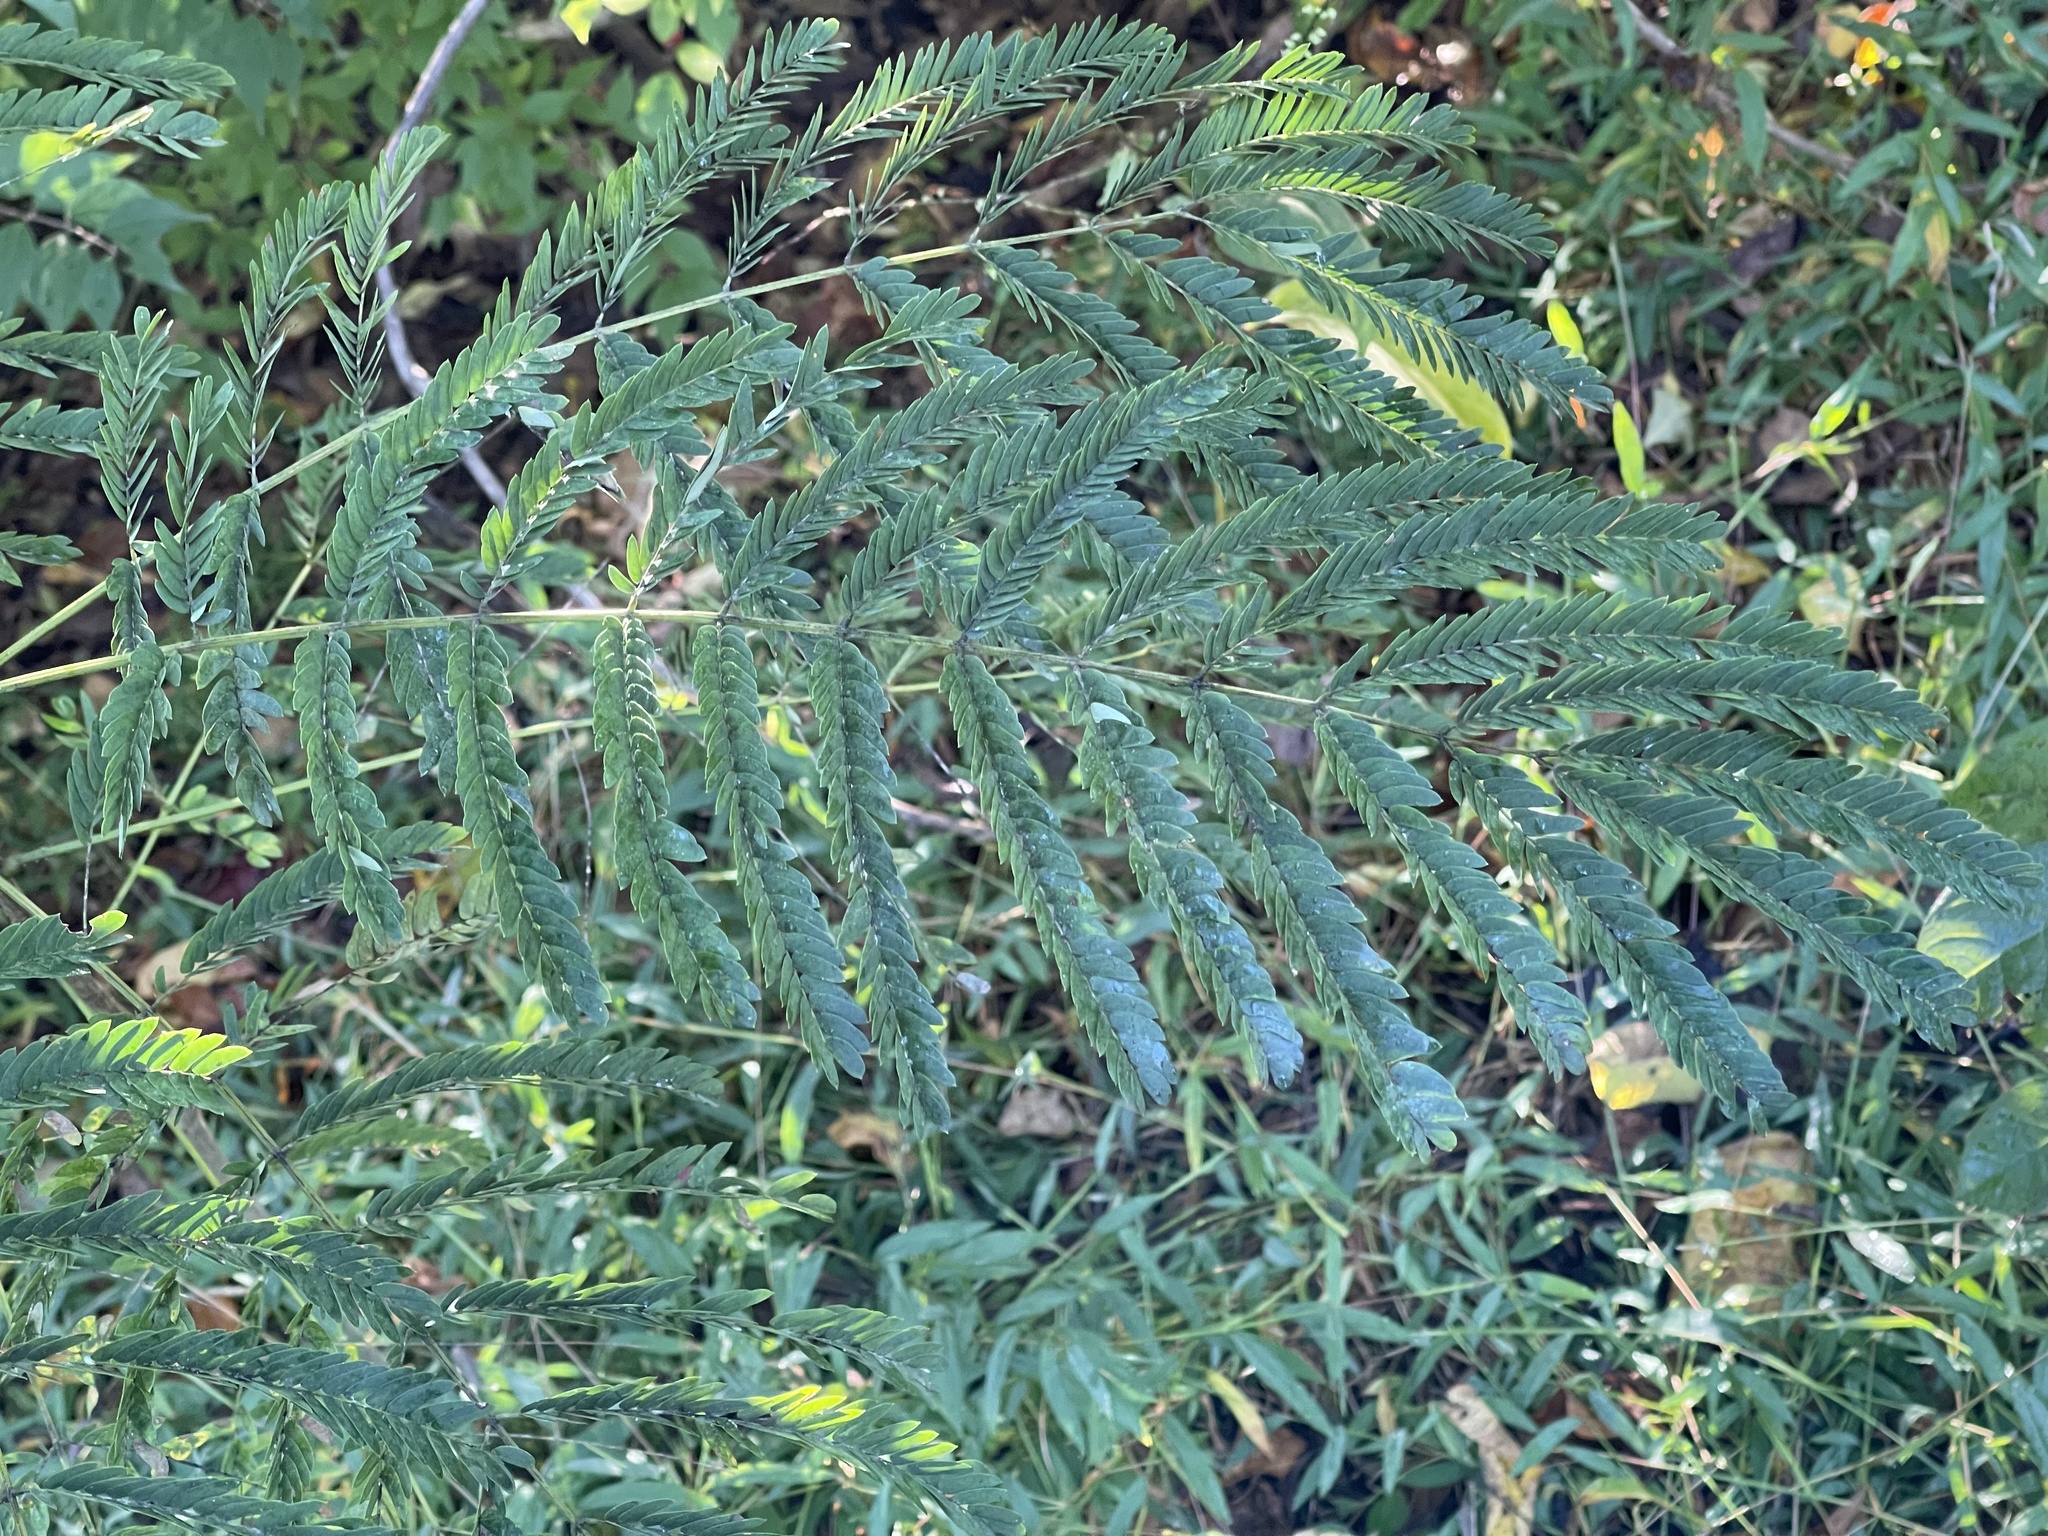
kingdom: Plantae
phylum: Tracheophyta
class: Magnoliopsida
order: Fabales
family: Fabaceae
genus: Albizia
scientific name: Albizia julibrissin
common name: Silktree
